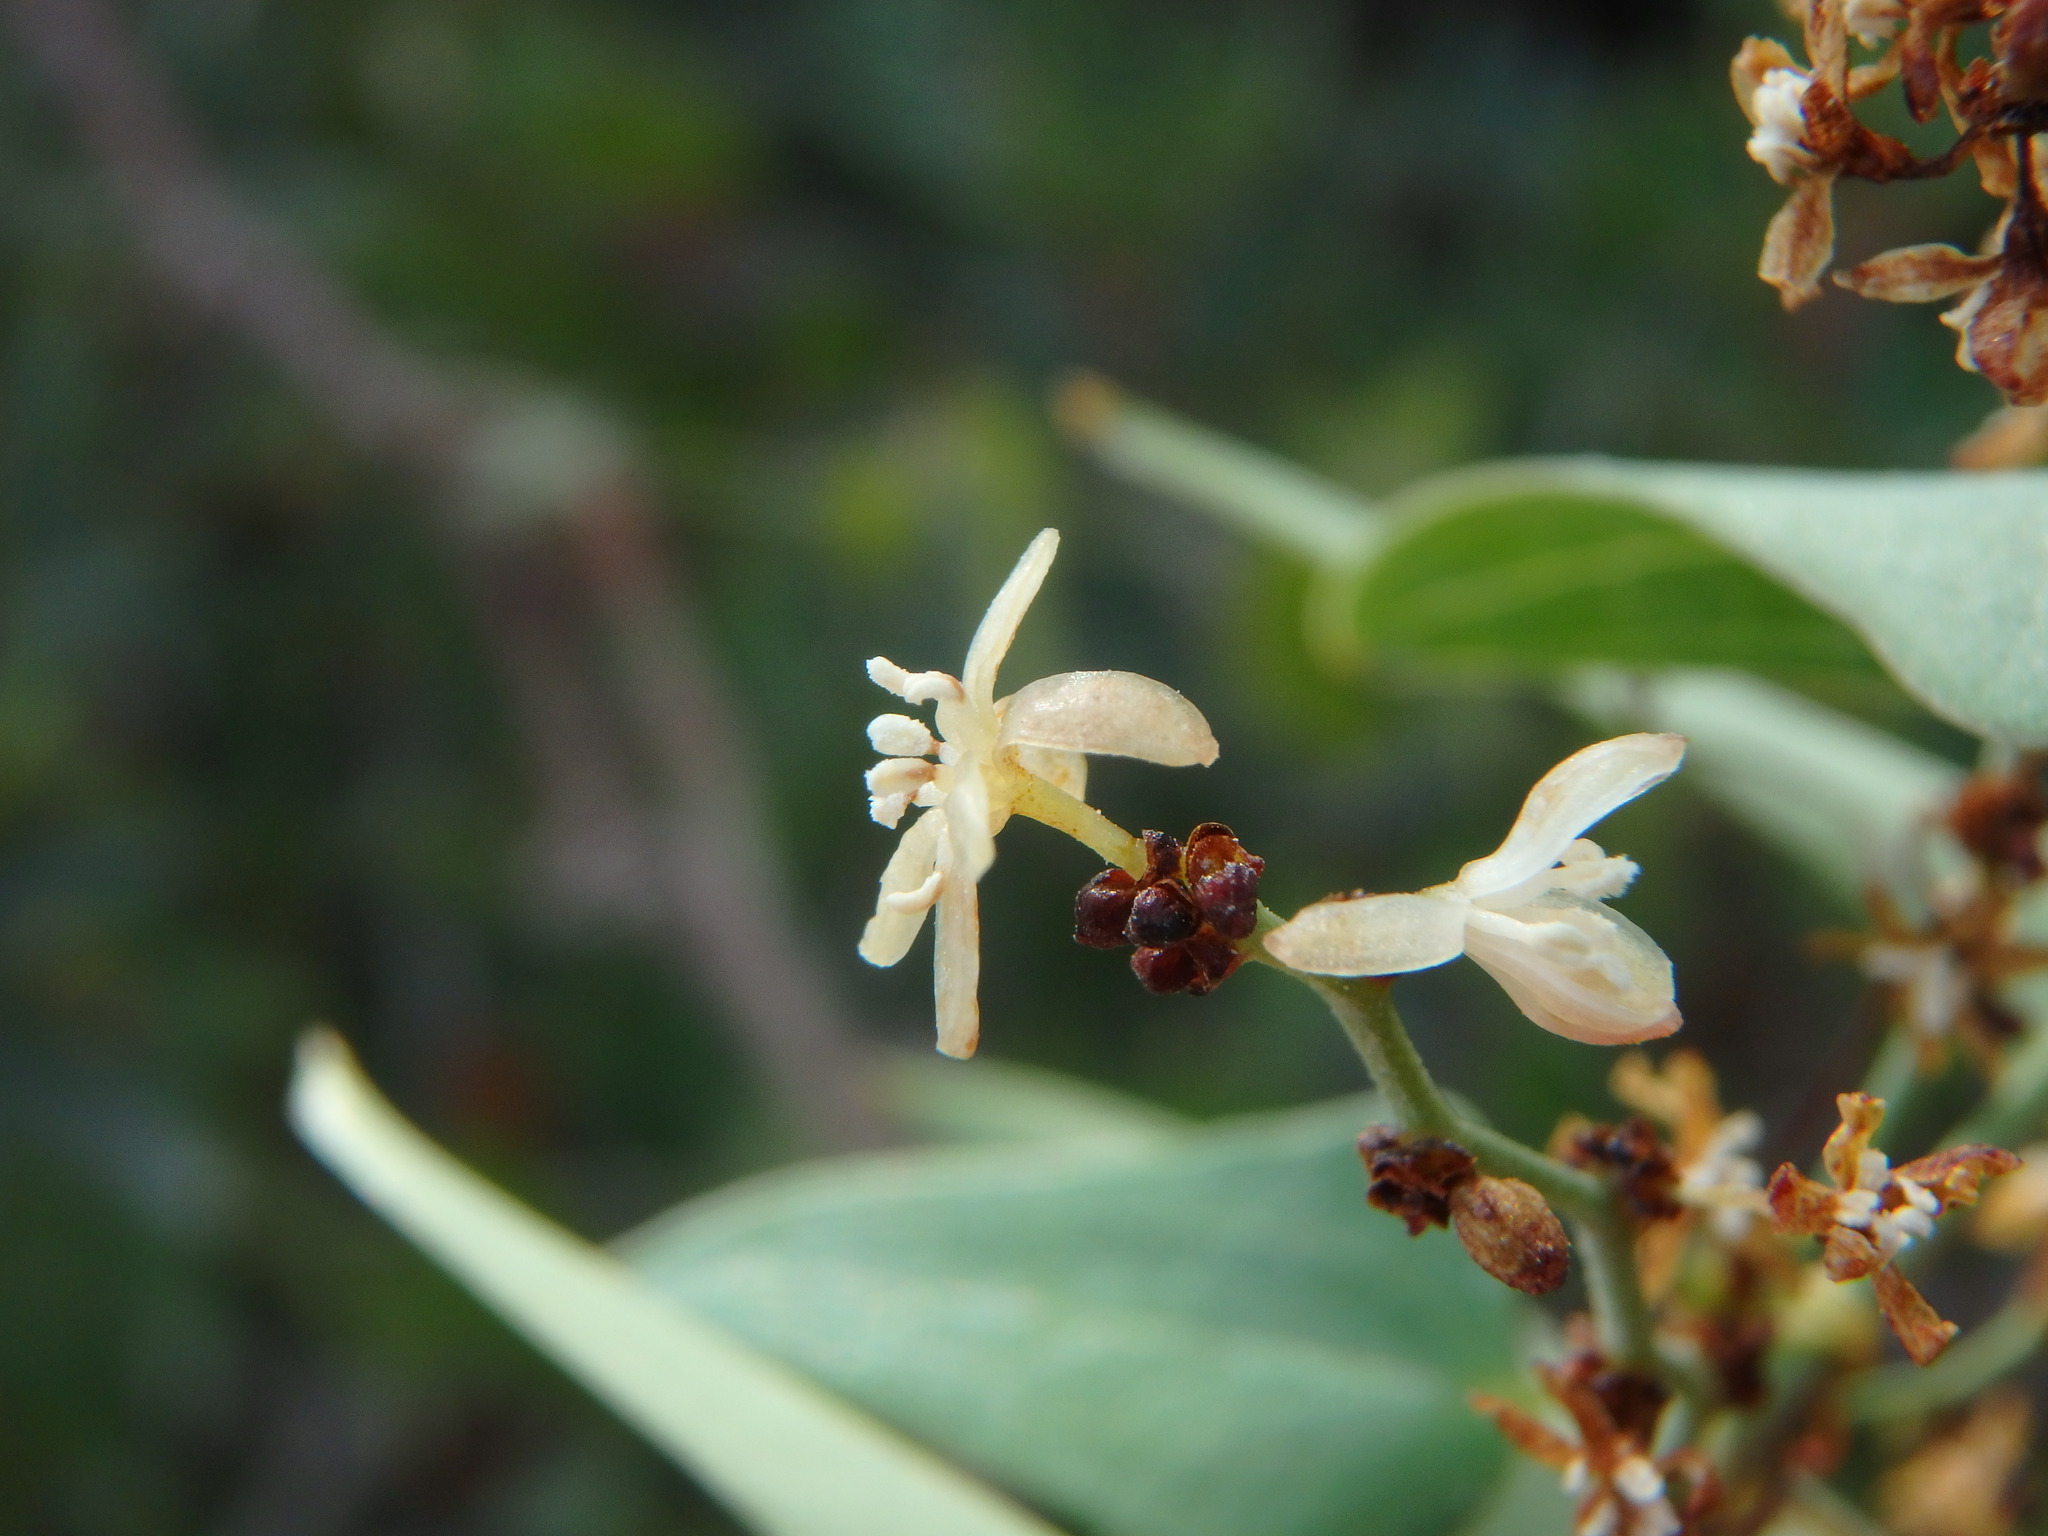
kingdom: Plantae
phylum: Tracheophyta
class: Liliopsida
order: Liliales
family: Smilacaceae
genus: Smilax
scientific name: Smilax aspera
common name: Common smilax
